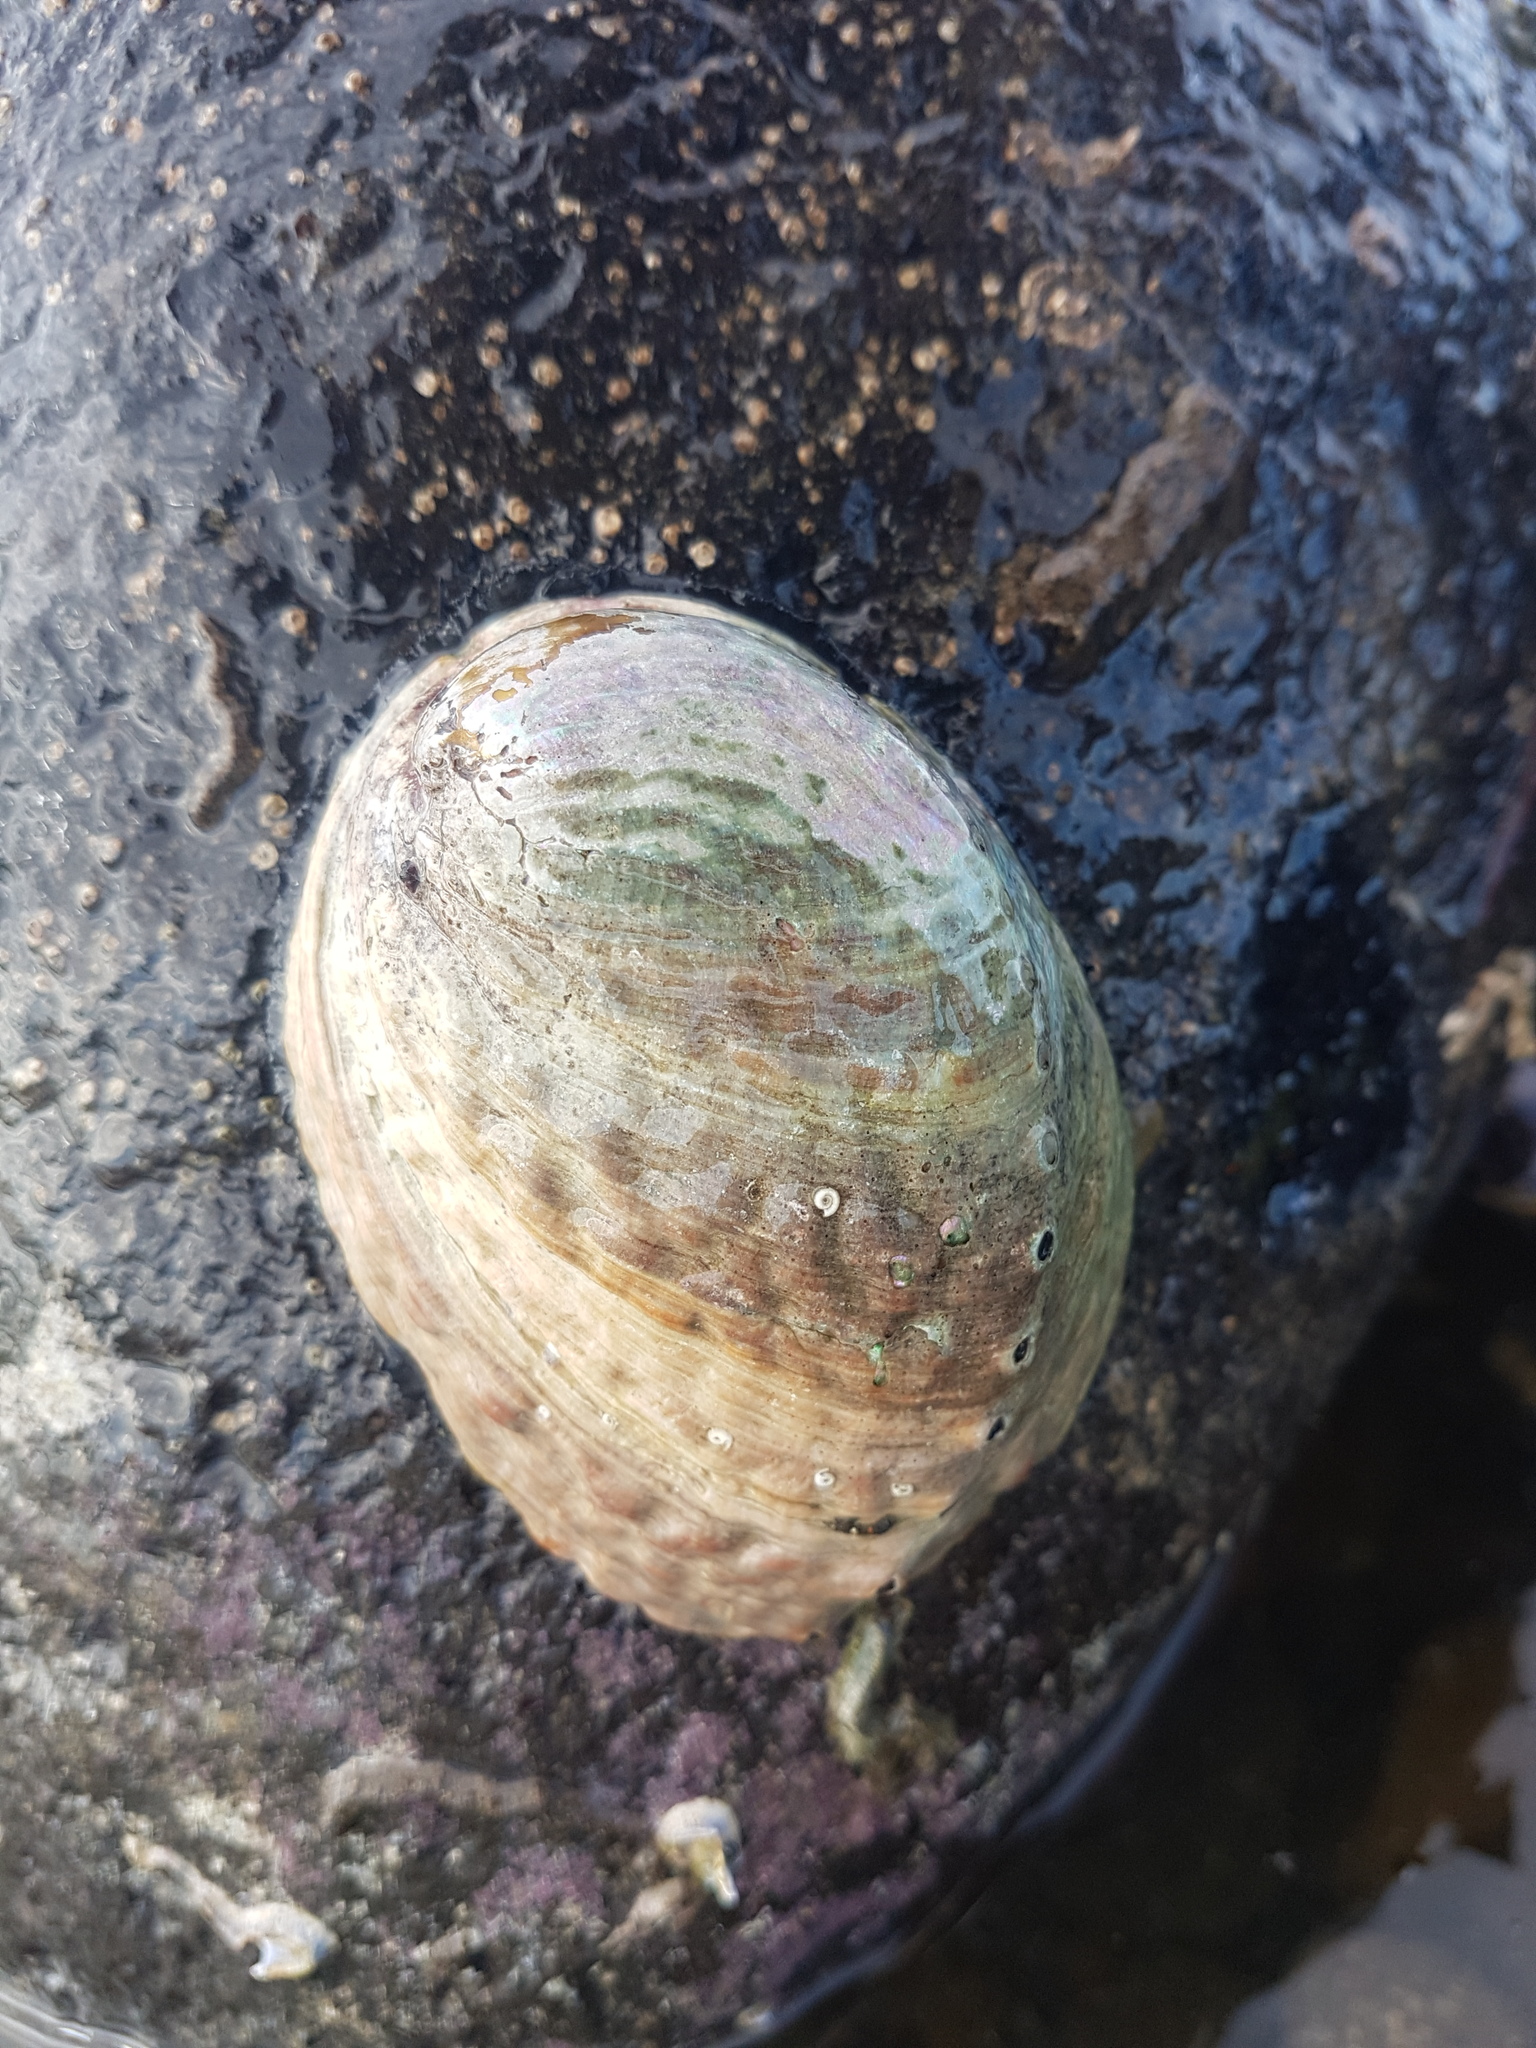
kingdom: Animalia
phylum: Mollusca
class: Gastropoda
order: Lepetellida
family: Haliotidae
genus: Haliotis
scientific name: Haliotis iris
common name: Abalone
